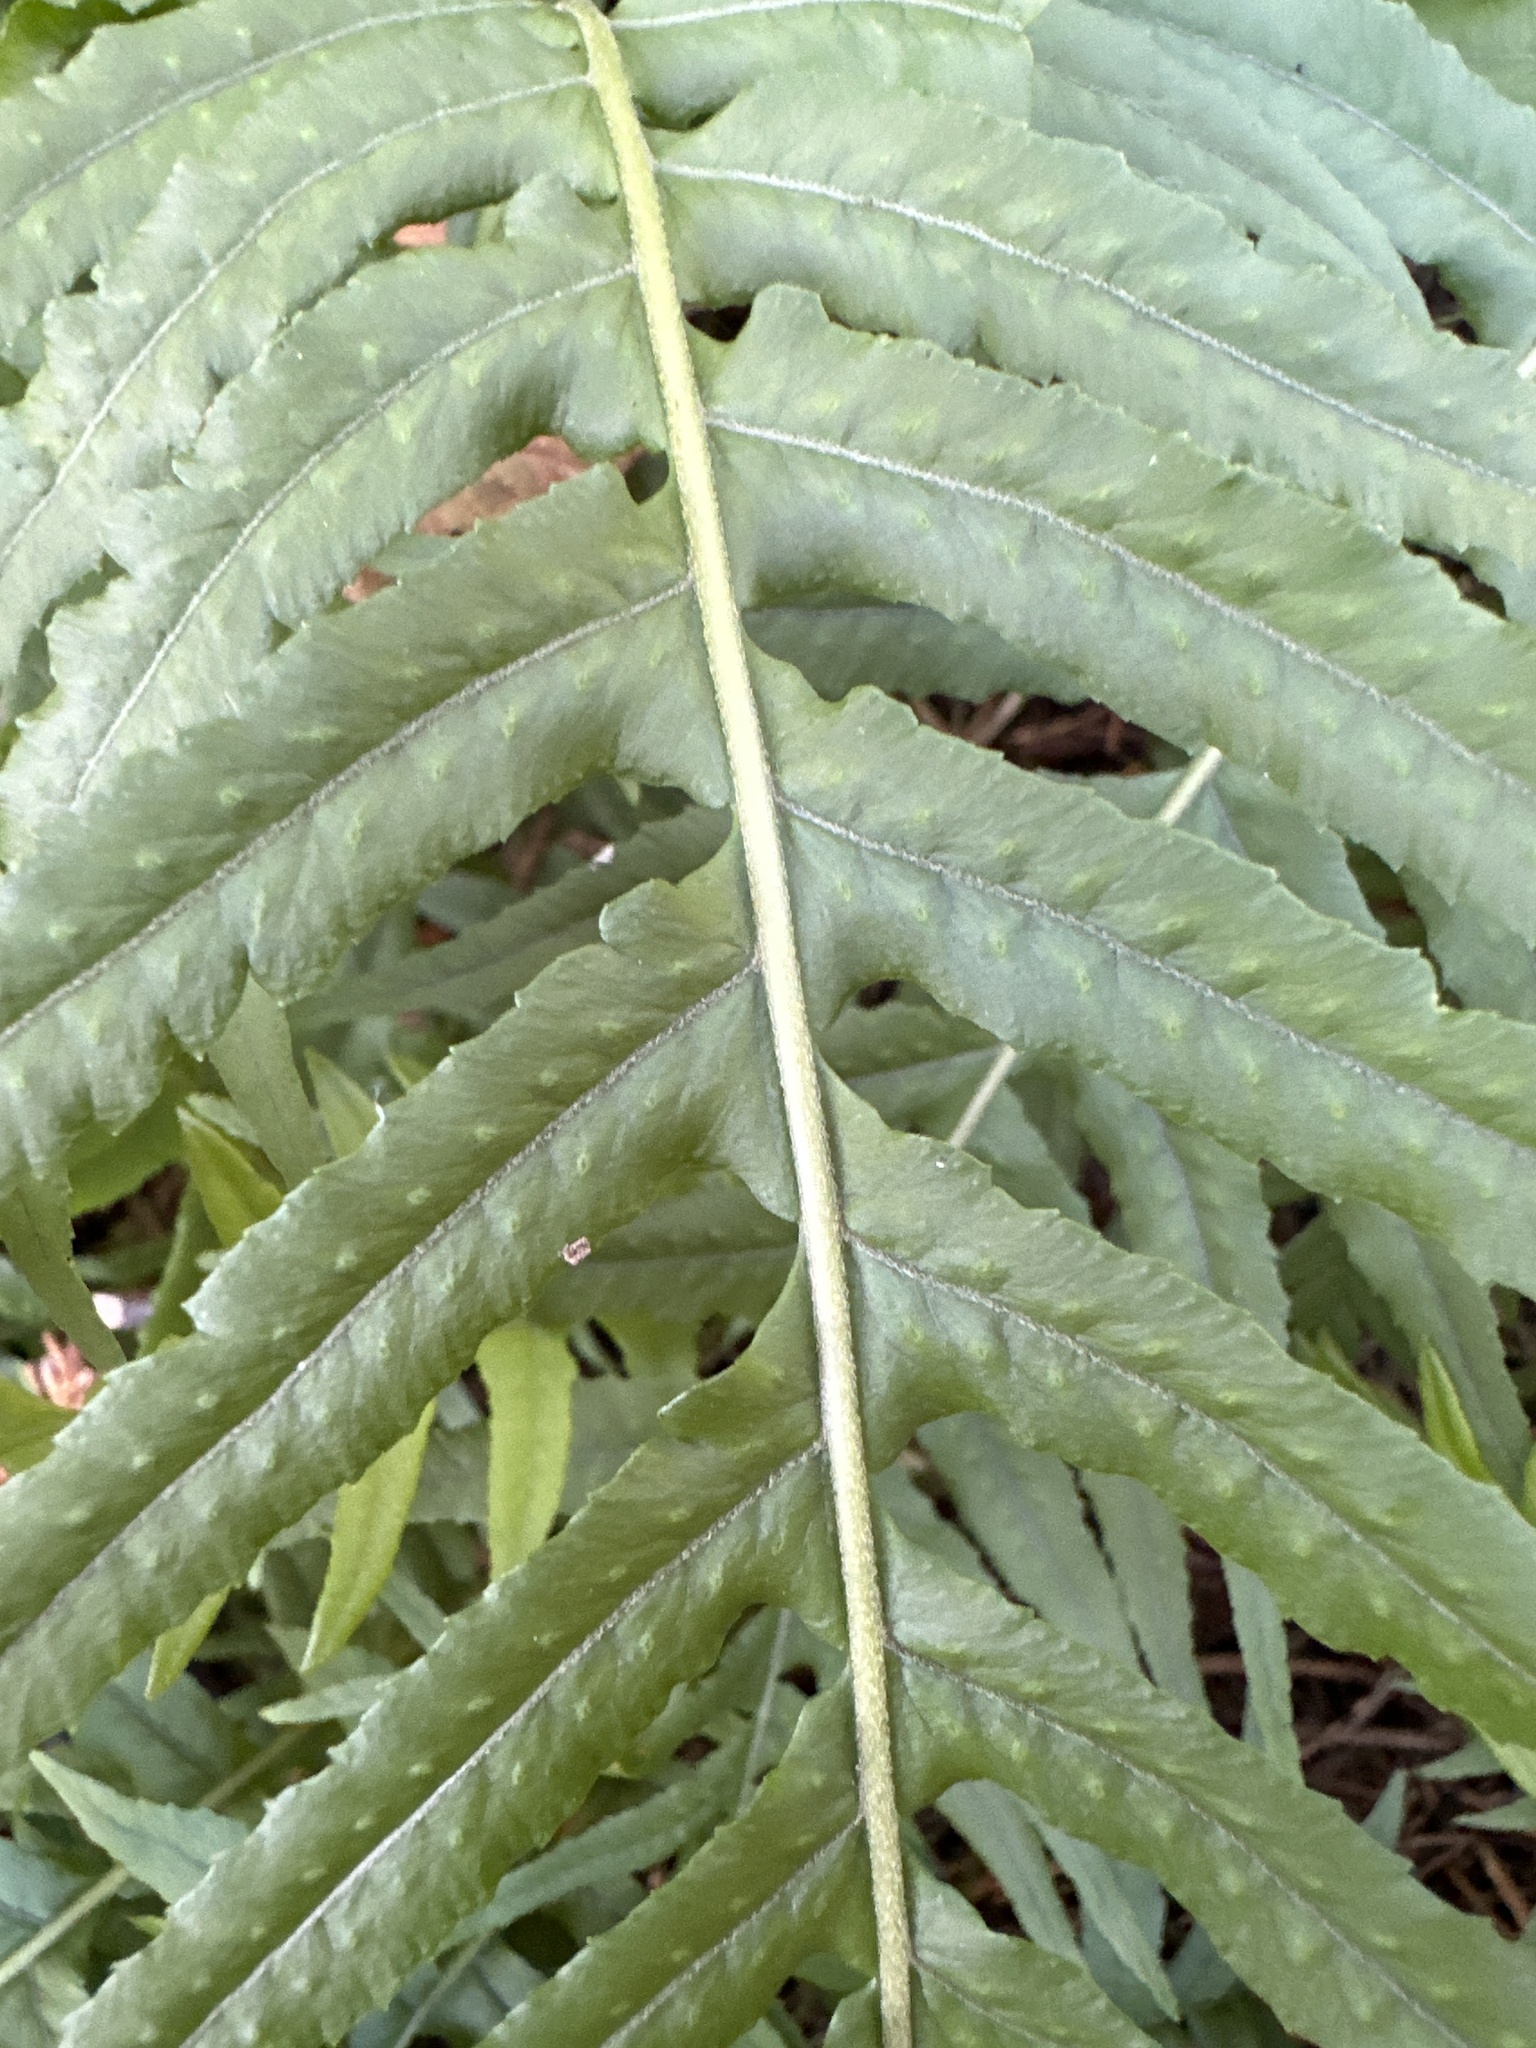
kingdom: Plantae
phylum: Tracheophyta
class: Polypodiopsida
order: Polypodiales
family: Polypodiaceae
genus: Polypodium
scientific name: Polypodium glycyrrhiza
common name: Licorice fern
